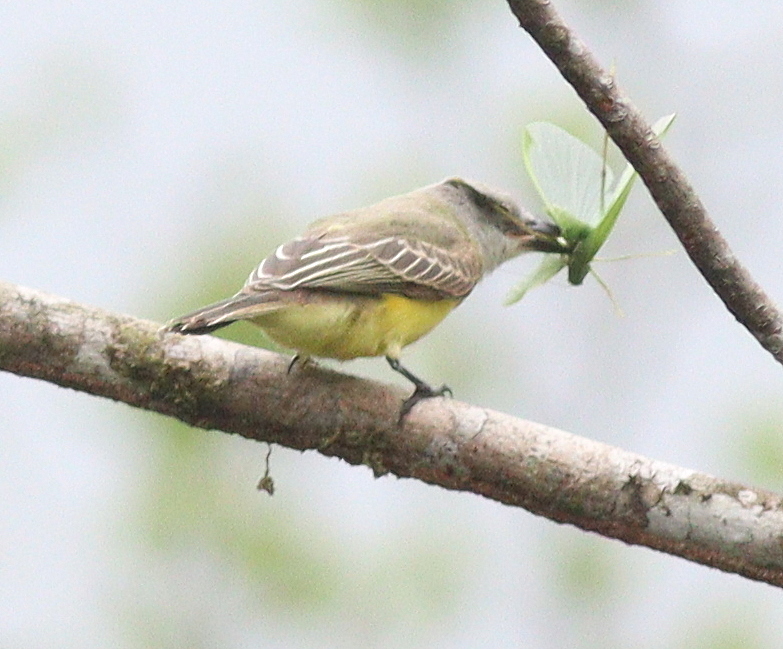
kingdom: Animalia
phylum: Chordata
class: Aves
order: Passeriformes
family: Tyrannidae
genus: Tyrannus
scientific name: Tyrannus melancholicus
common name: Tropical kingbird
